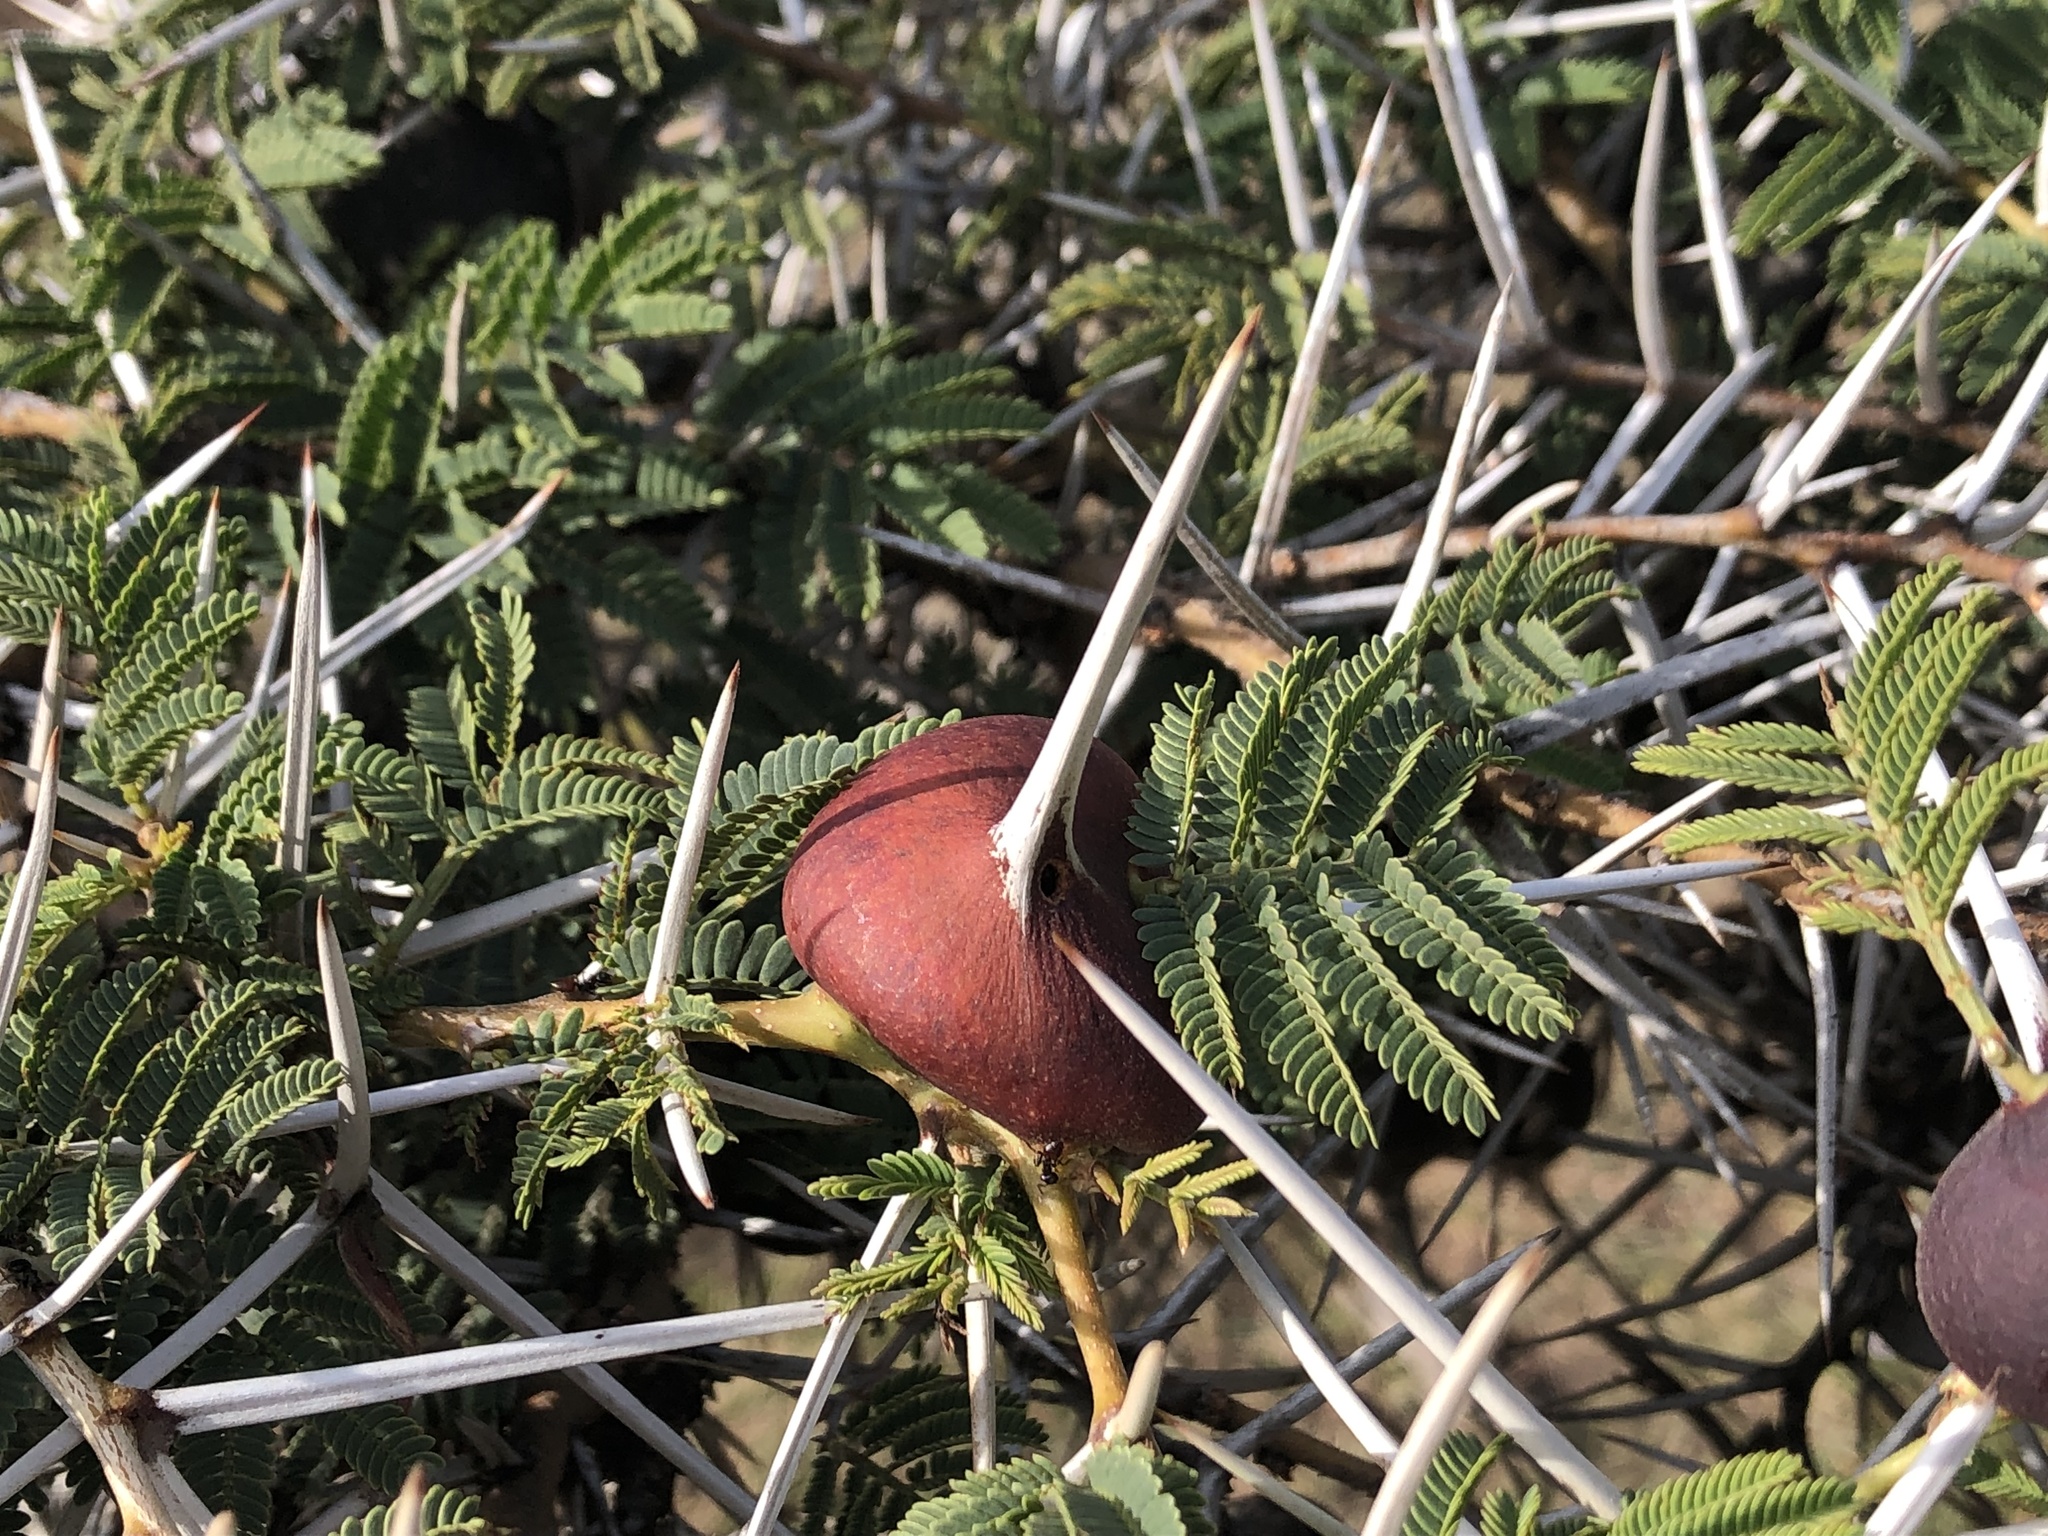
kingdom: Plantae
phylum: Tracheophyta
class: Magnoliopsida
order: Fabales
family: Fabaceae
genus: Vachellia
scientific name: Vachellia drepanolobium
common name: Whistling thorn
